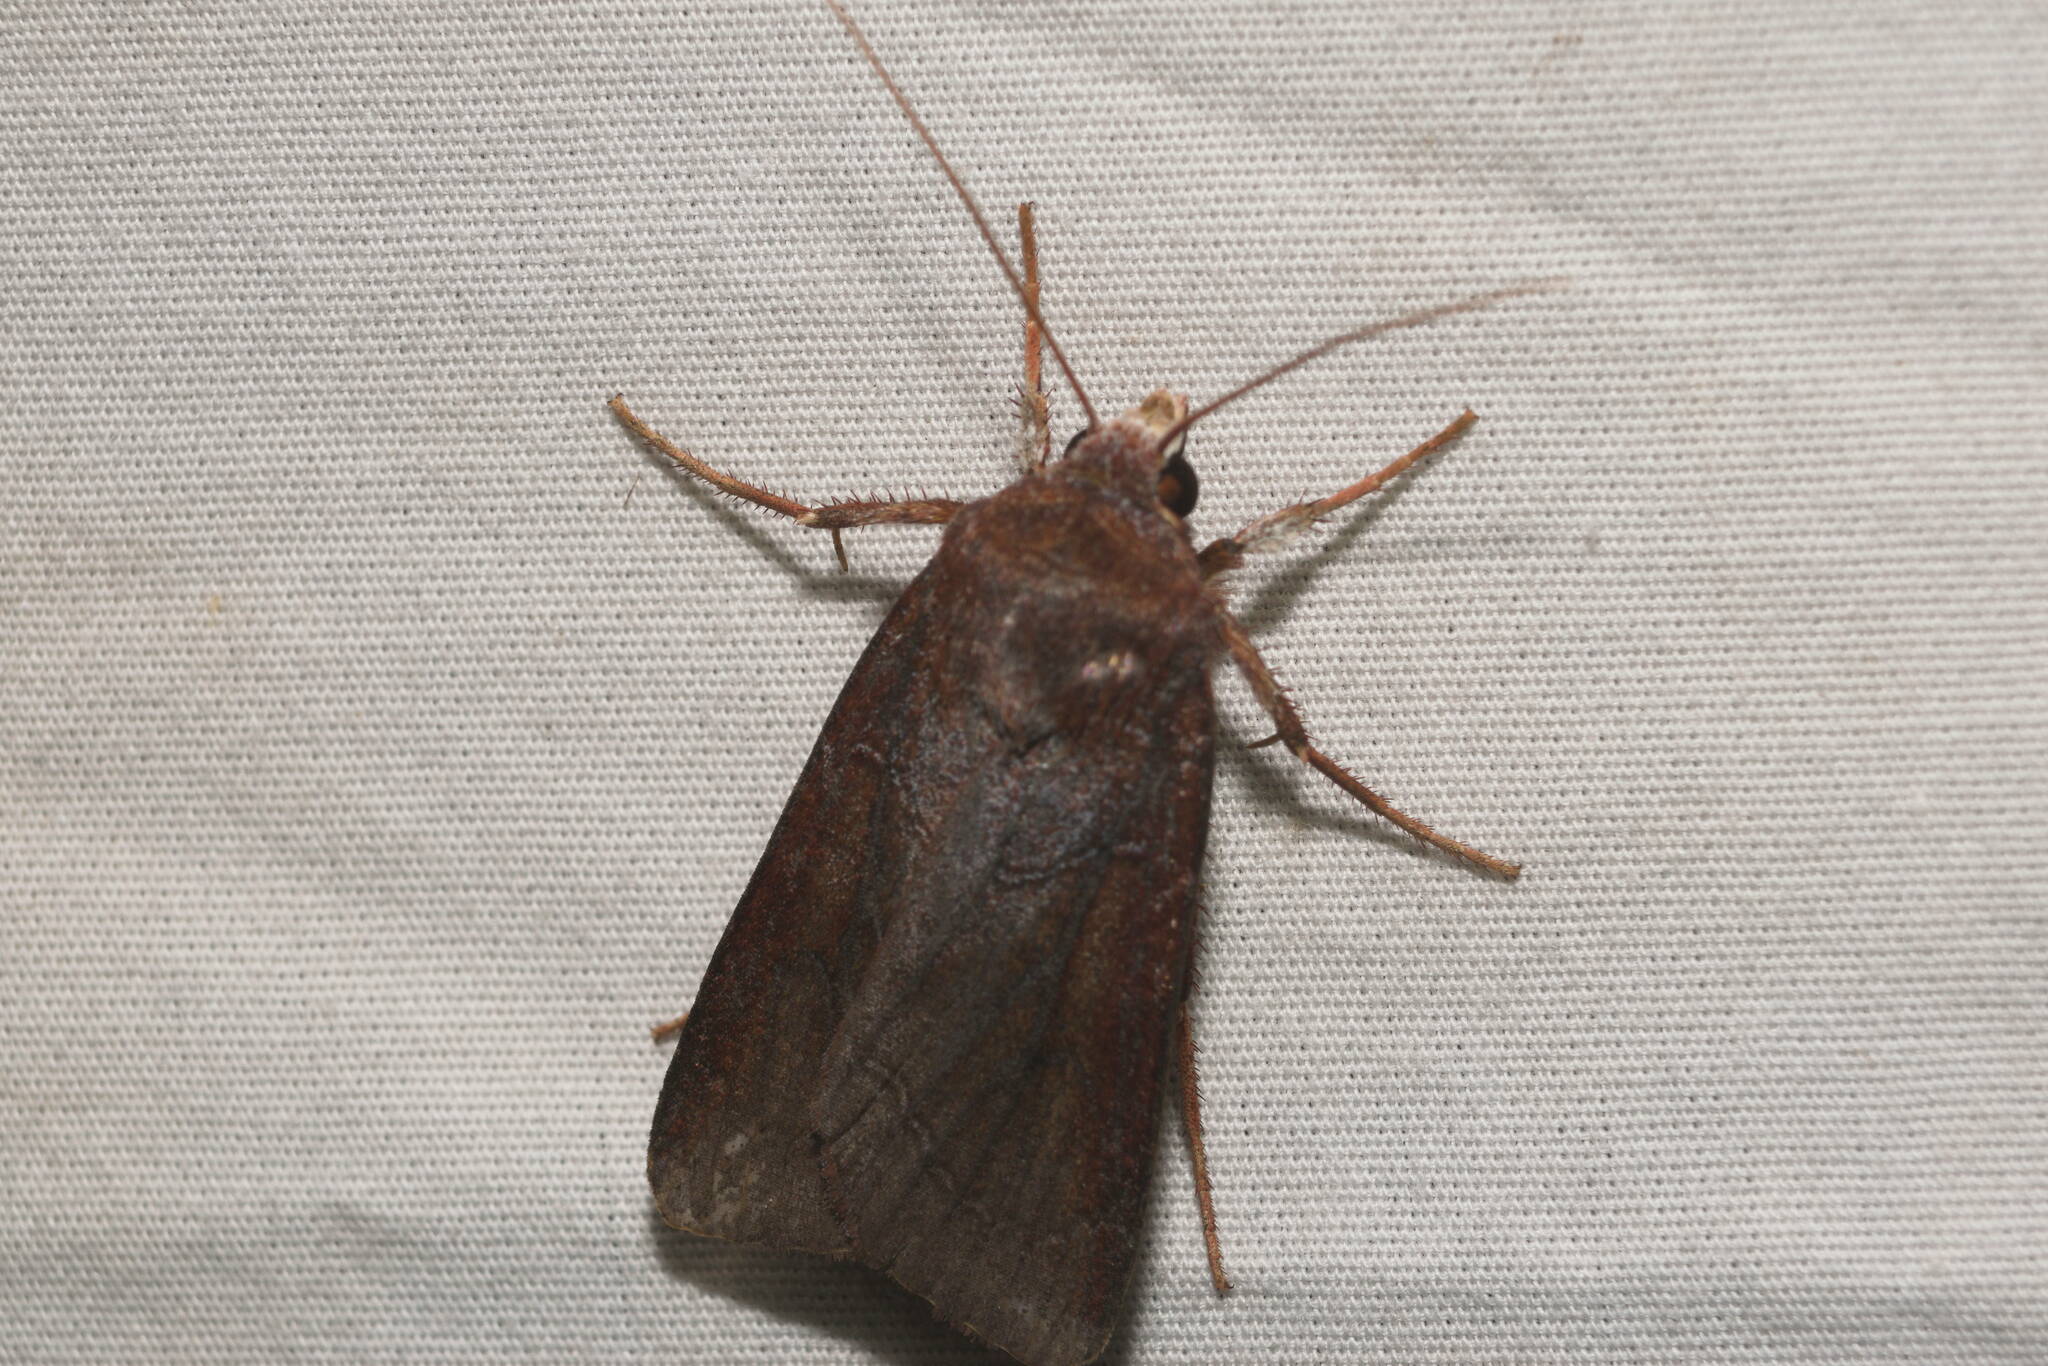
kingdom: Animalia
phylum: Arthropoda
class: Insecta
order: Lepidoptera
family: Noctuidae
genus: Agrotis
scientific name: Agrotis hephaestaea
